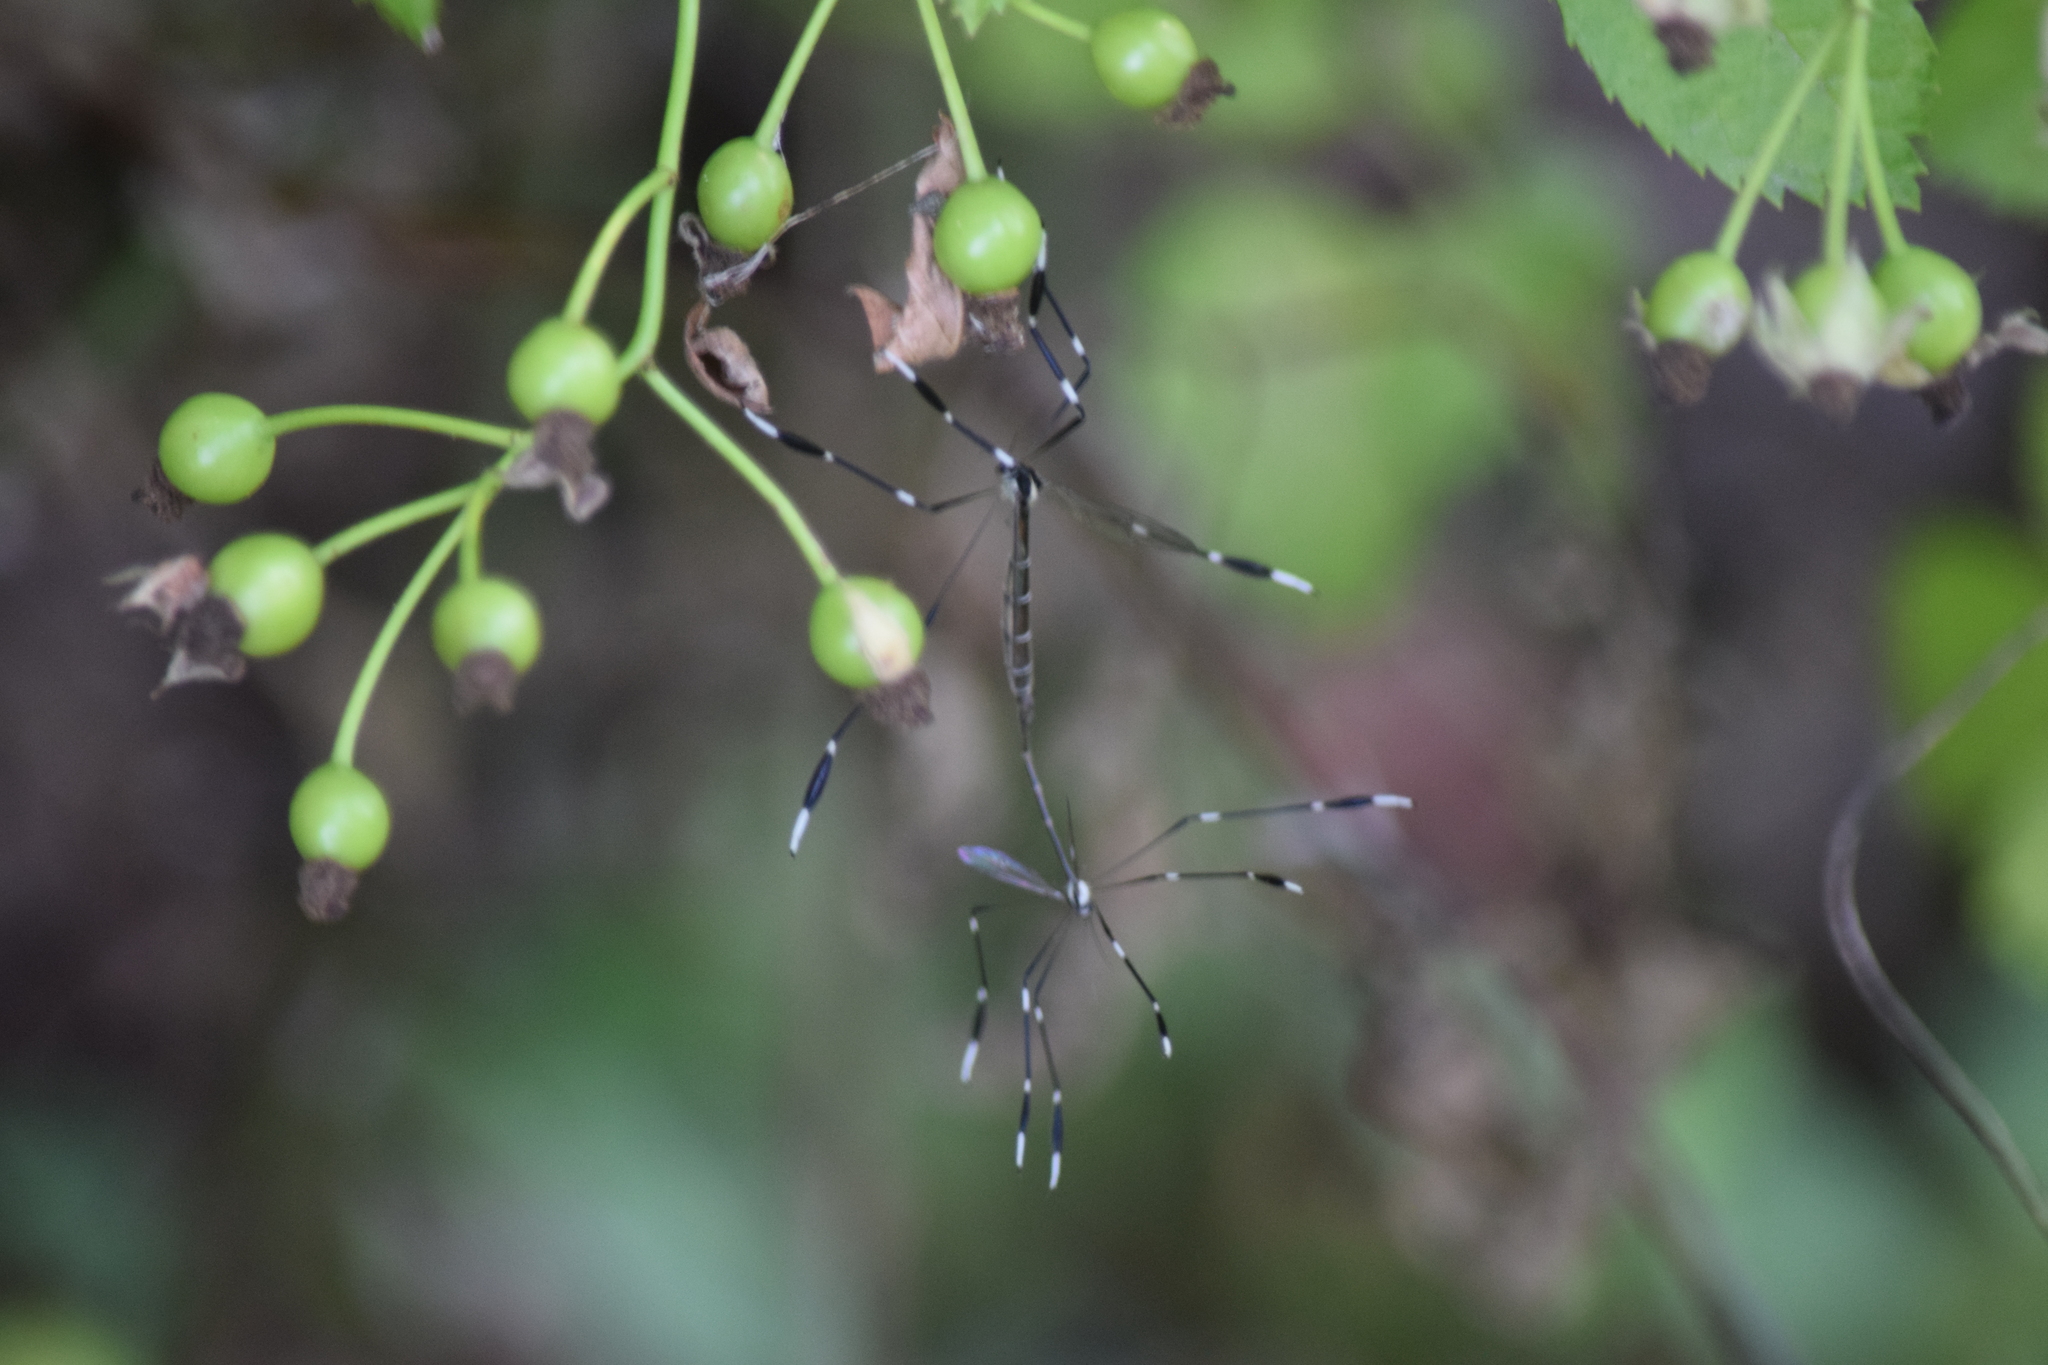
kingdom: Animalia
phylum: Arthropoda
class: Insecta
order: Diptera
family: Ptychopteridae
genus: Bittacomorpha
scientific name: Bittacomorpha clavipes
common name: Eastern phantom crane fly
